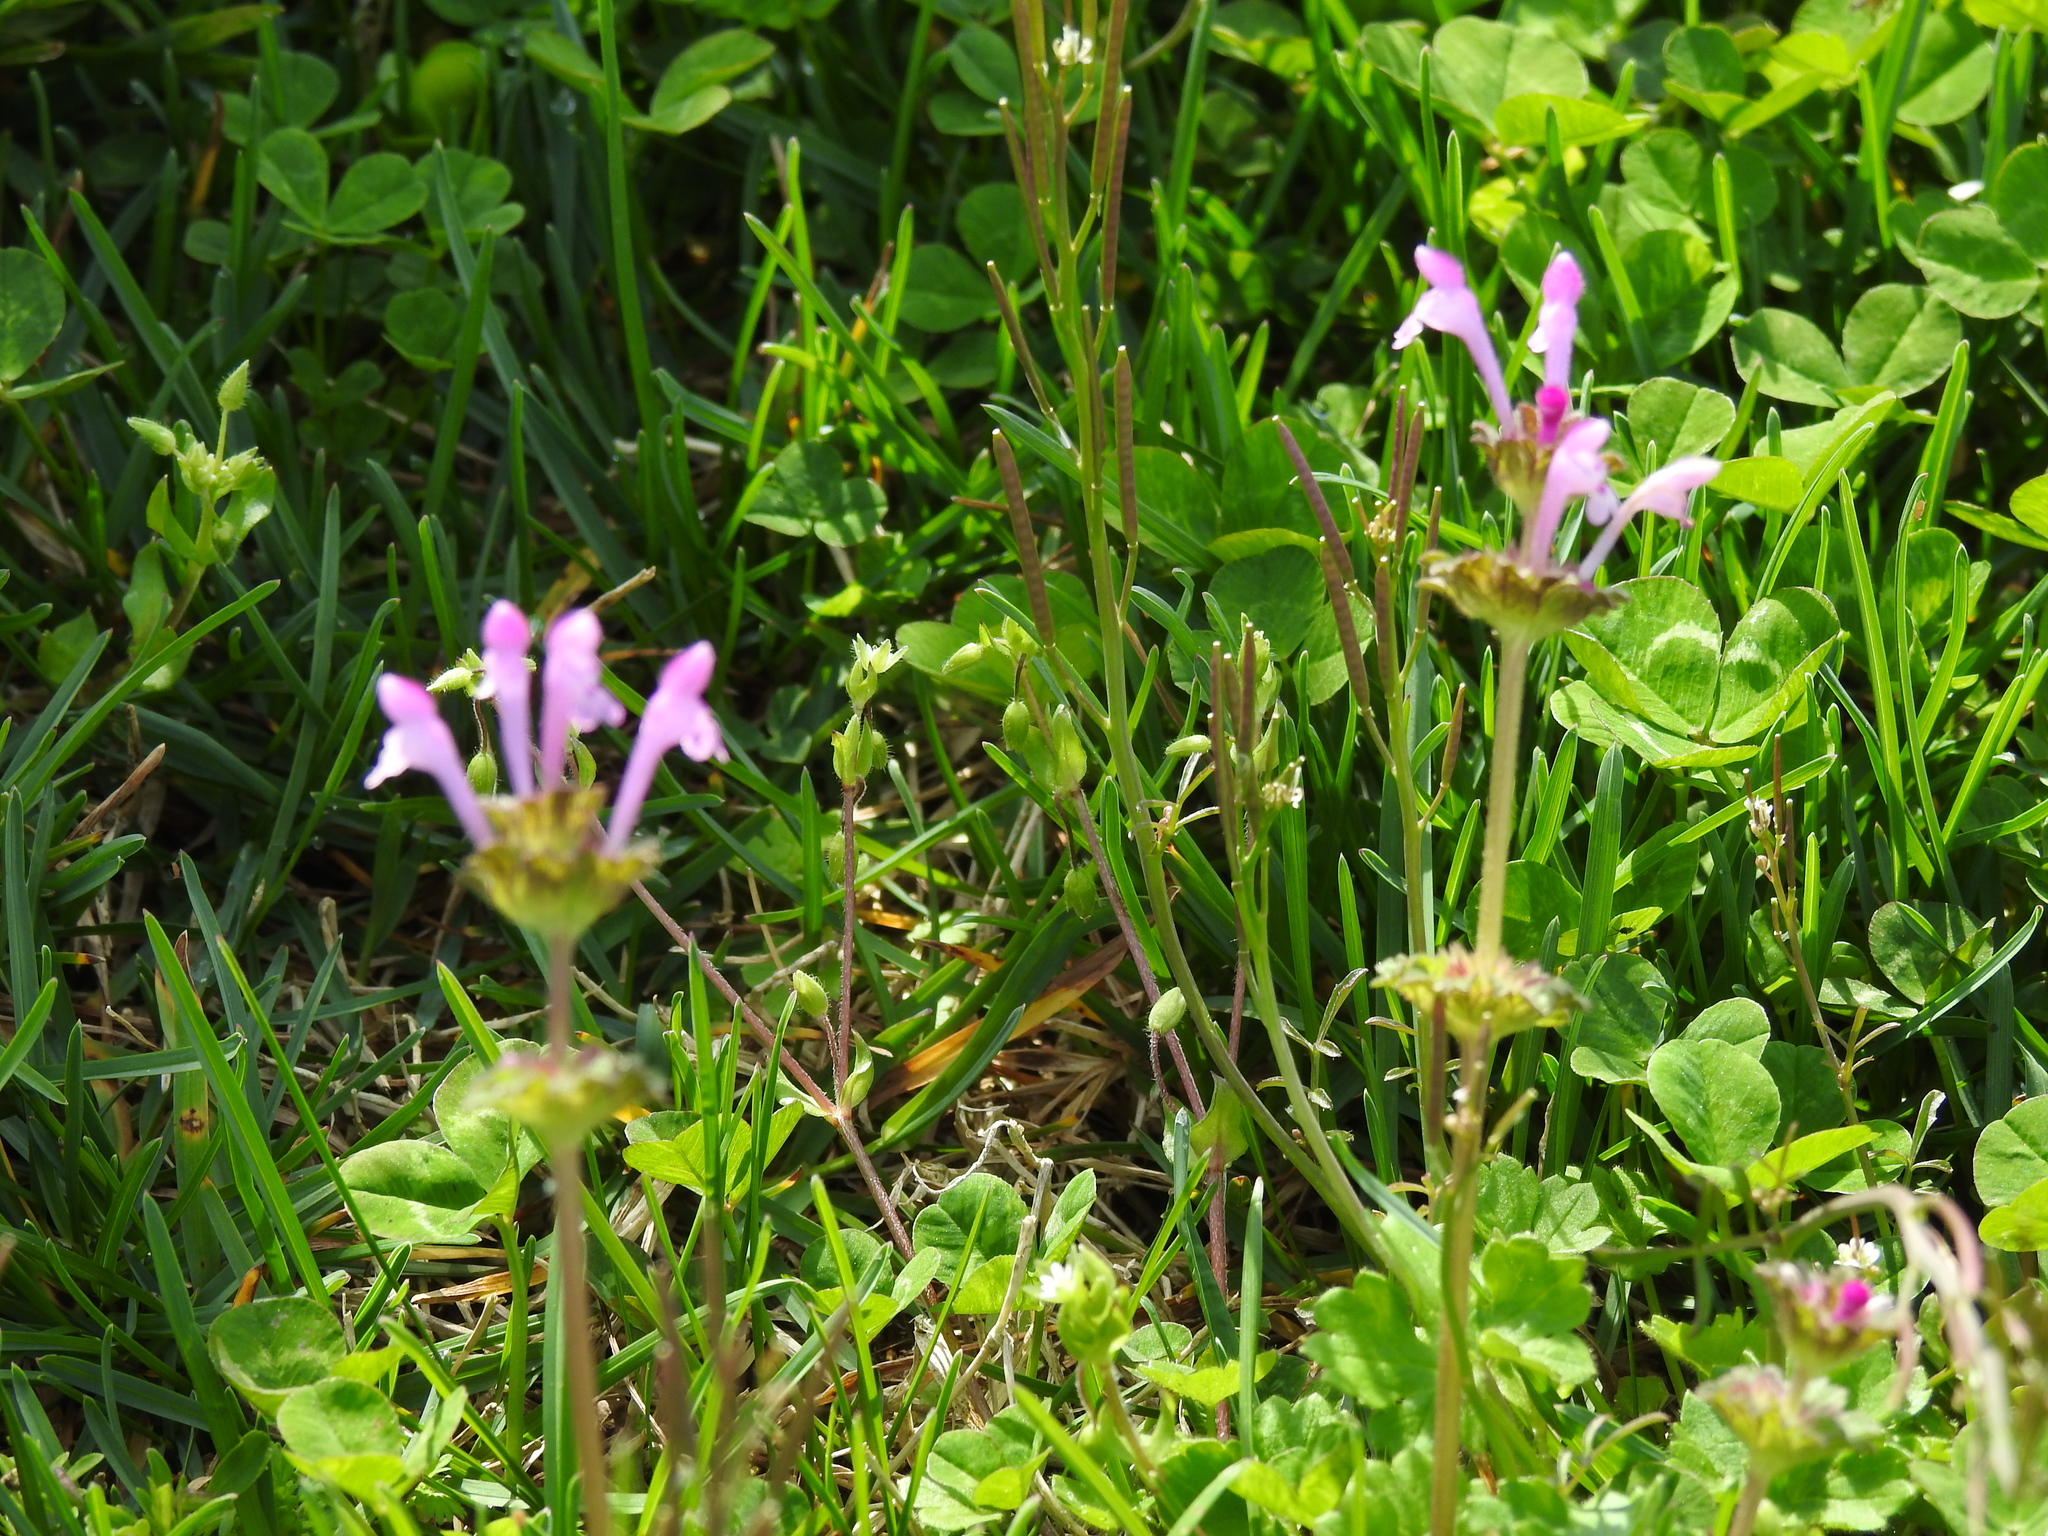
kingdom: Plantae
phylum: Tracheophyta
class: Magnoliopsida
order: Lamiales
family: Lamiaceae
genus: Lamium
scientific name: Lamium amplexicaule
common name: Henbit dead-nettle
